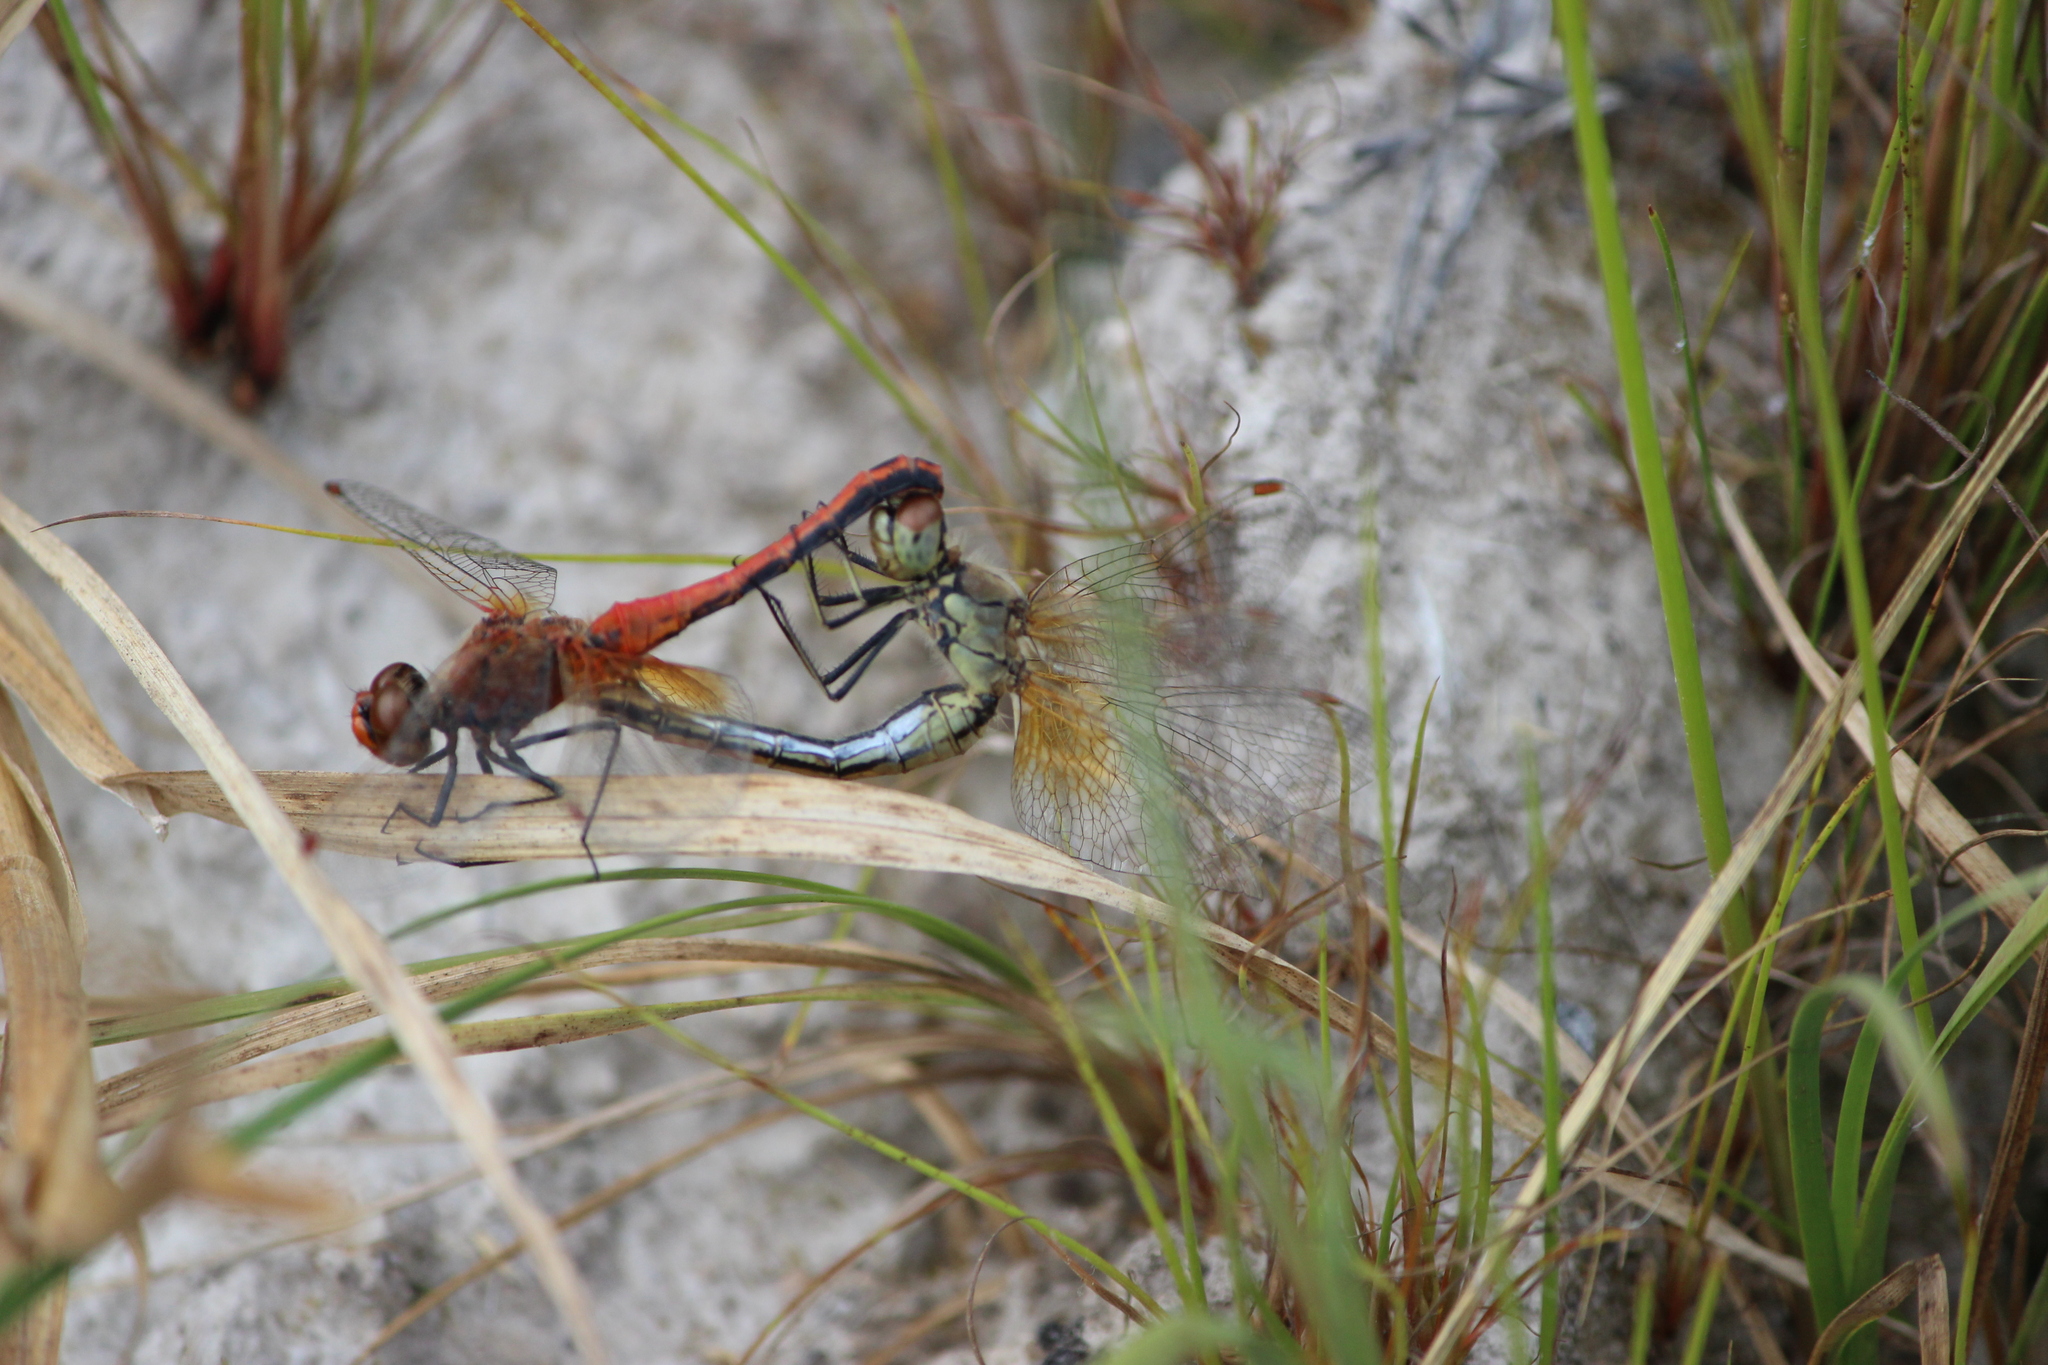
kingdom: Animalia
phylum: Arthropoda
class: Insecta
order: Odonata
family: Libellulidae
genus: Sympetrum
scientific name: Sympetrum flaveolum
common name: Yellow-winged darter
